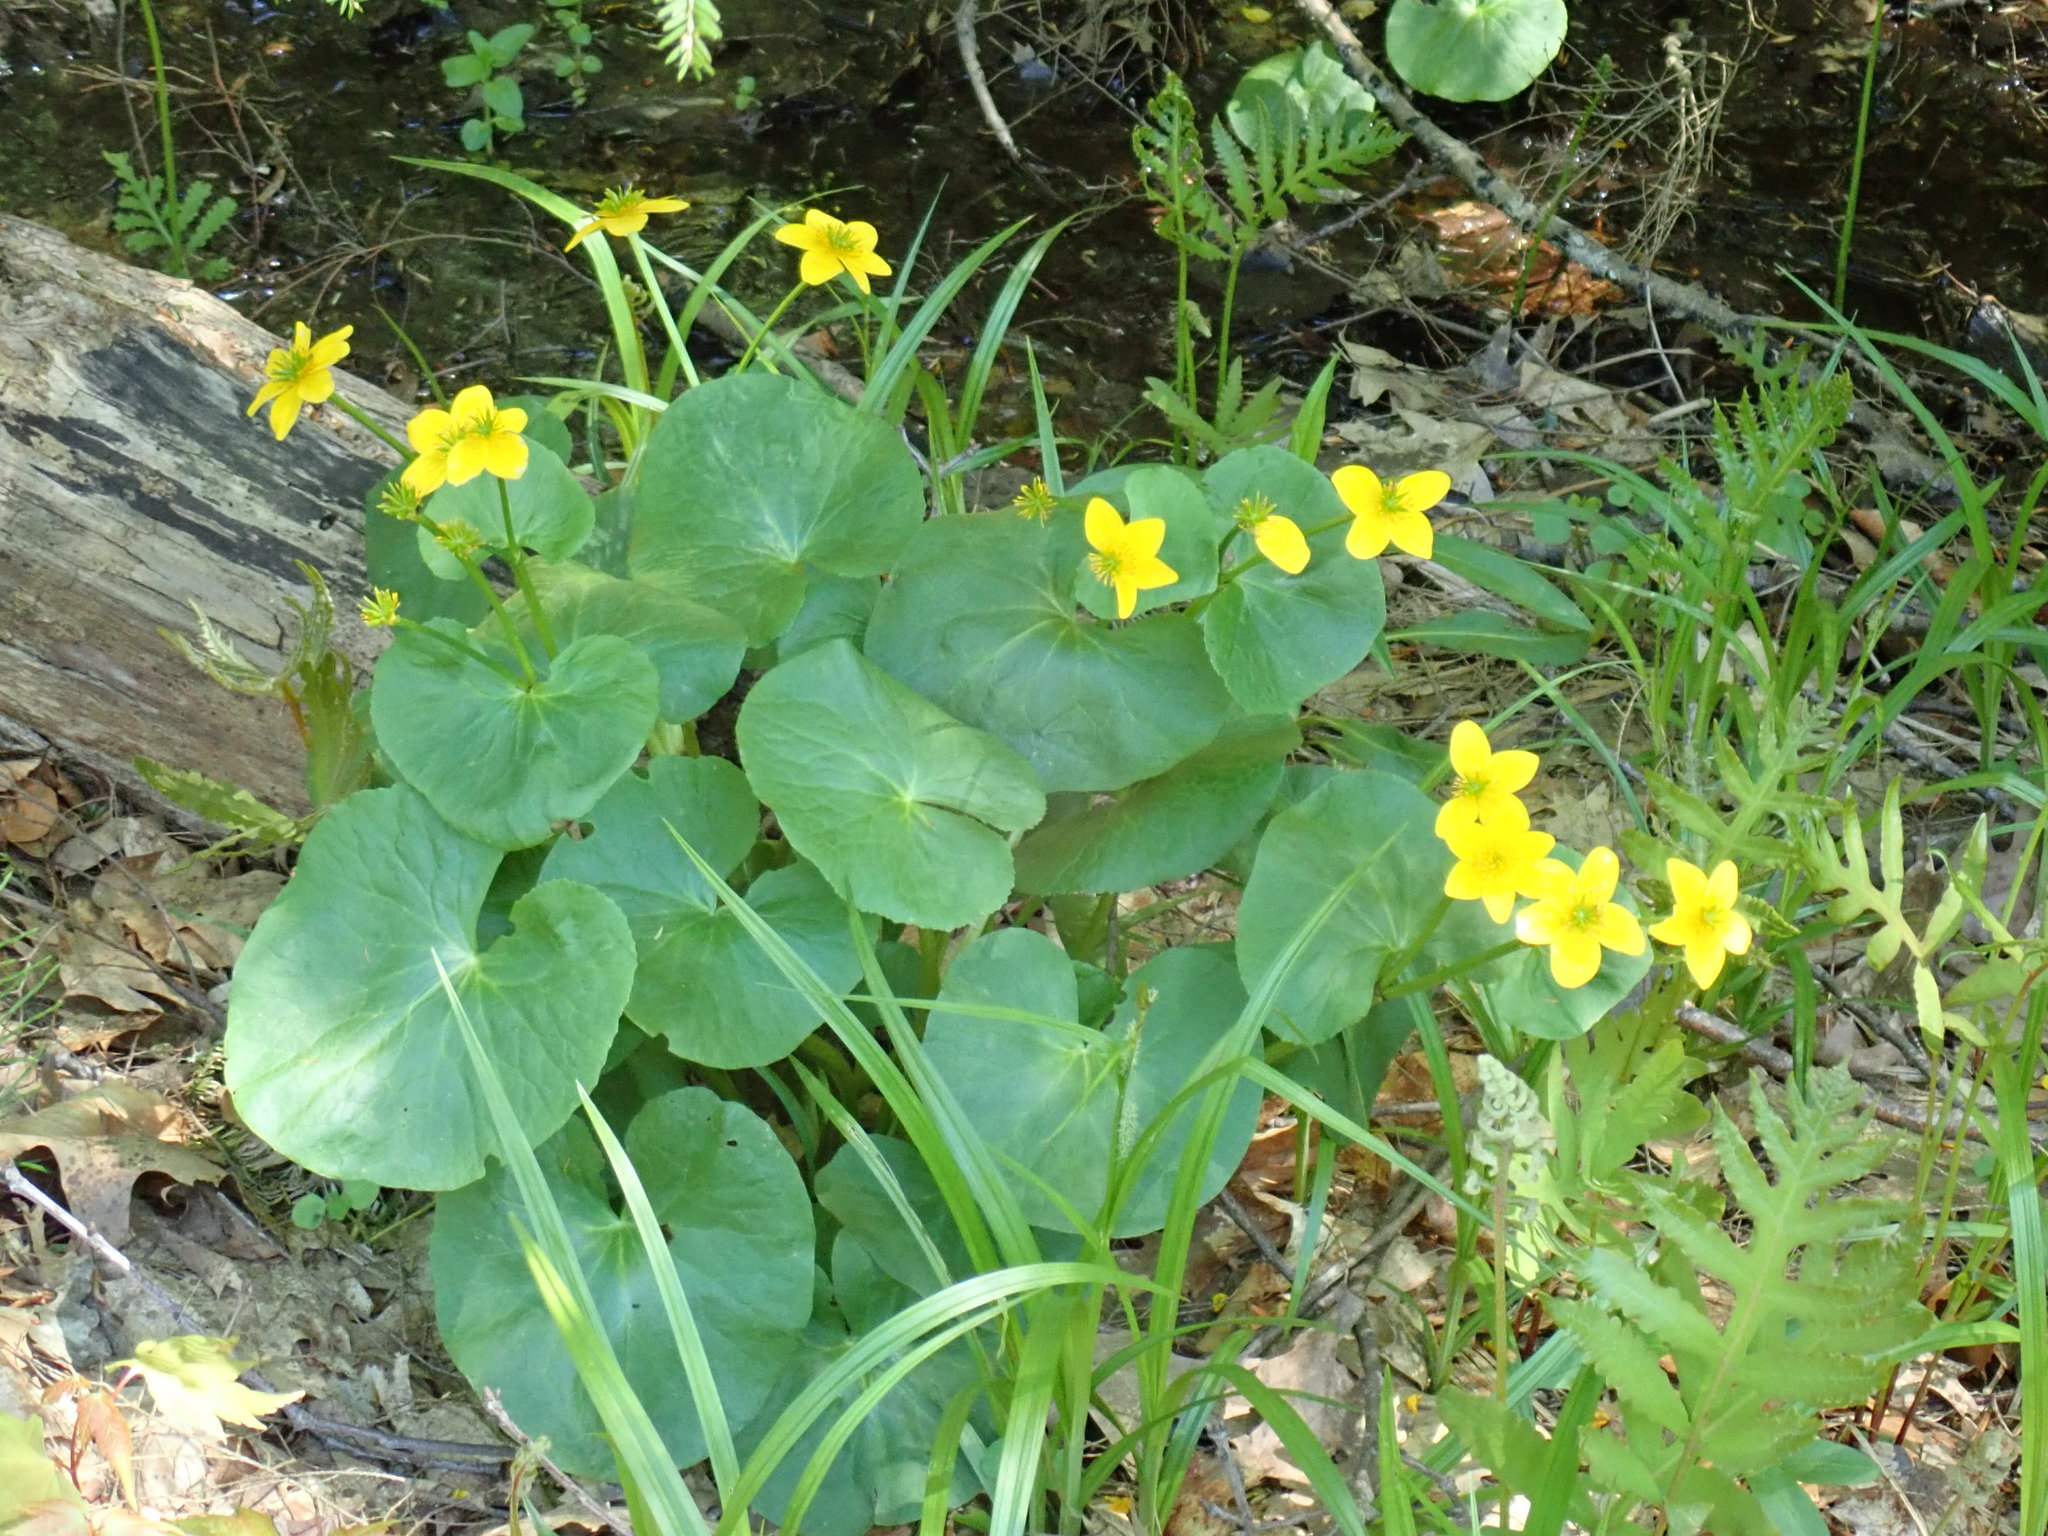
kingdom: Plantae
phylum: Tracheophyta
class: Magnoliopsida
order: Ranunculales
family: Ranunculaceae
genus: Caltha
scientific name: Caltha palustris
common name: Marsh marigold
